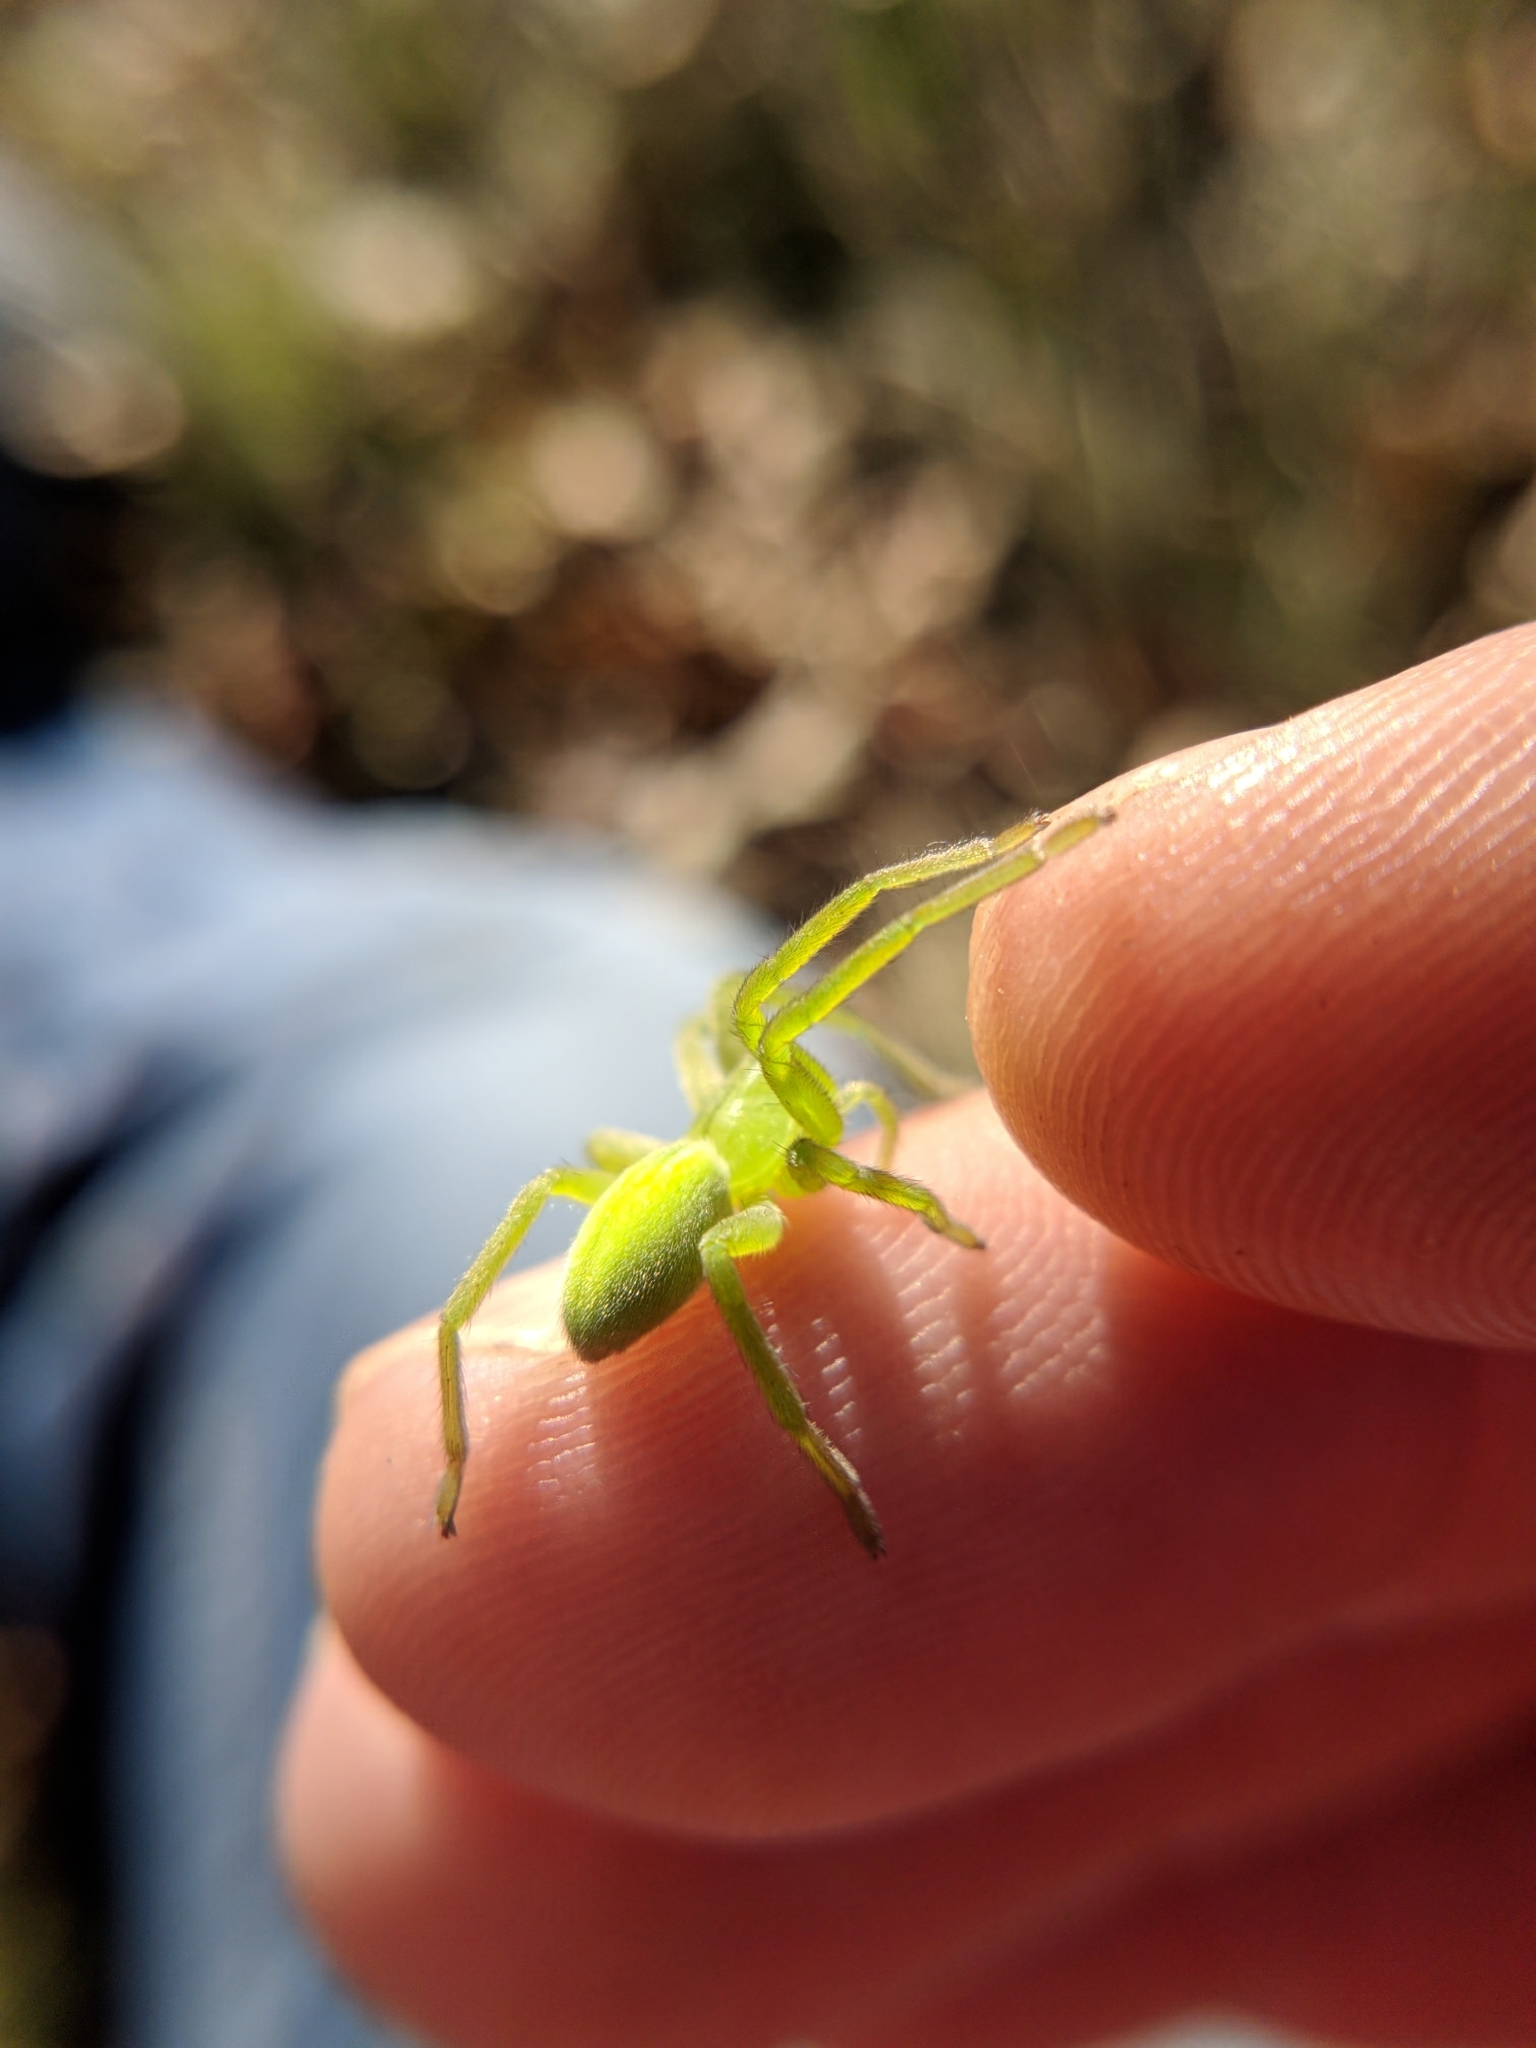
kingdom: Animalia
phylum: Arthropoda
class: Arachnida
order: Araneae
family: Sparassidae
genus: Micrommata
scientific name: Micrommata virescens
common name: Green spider
